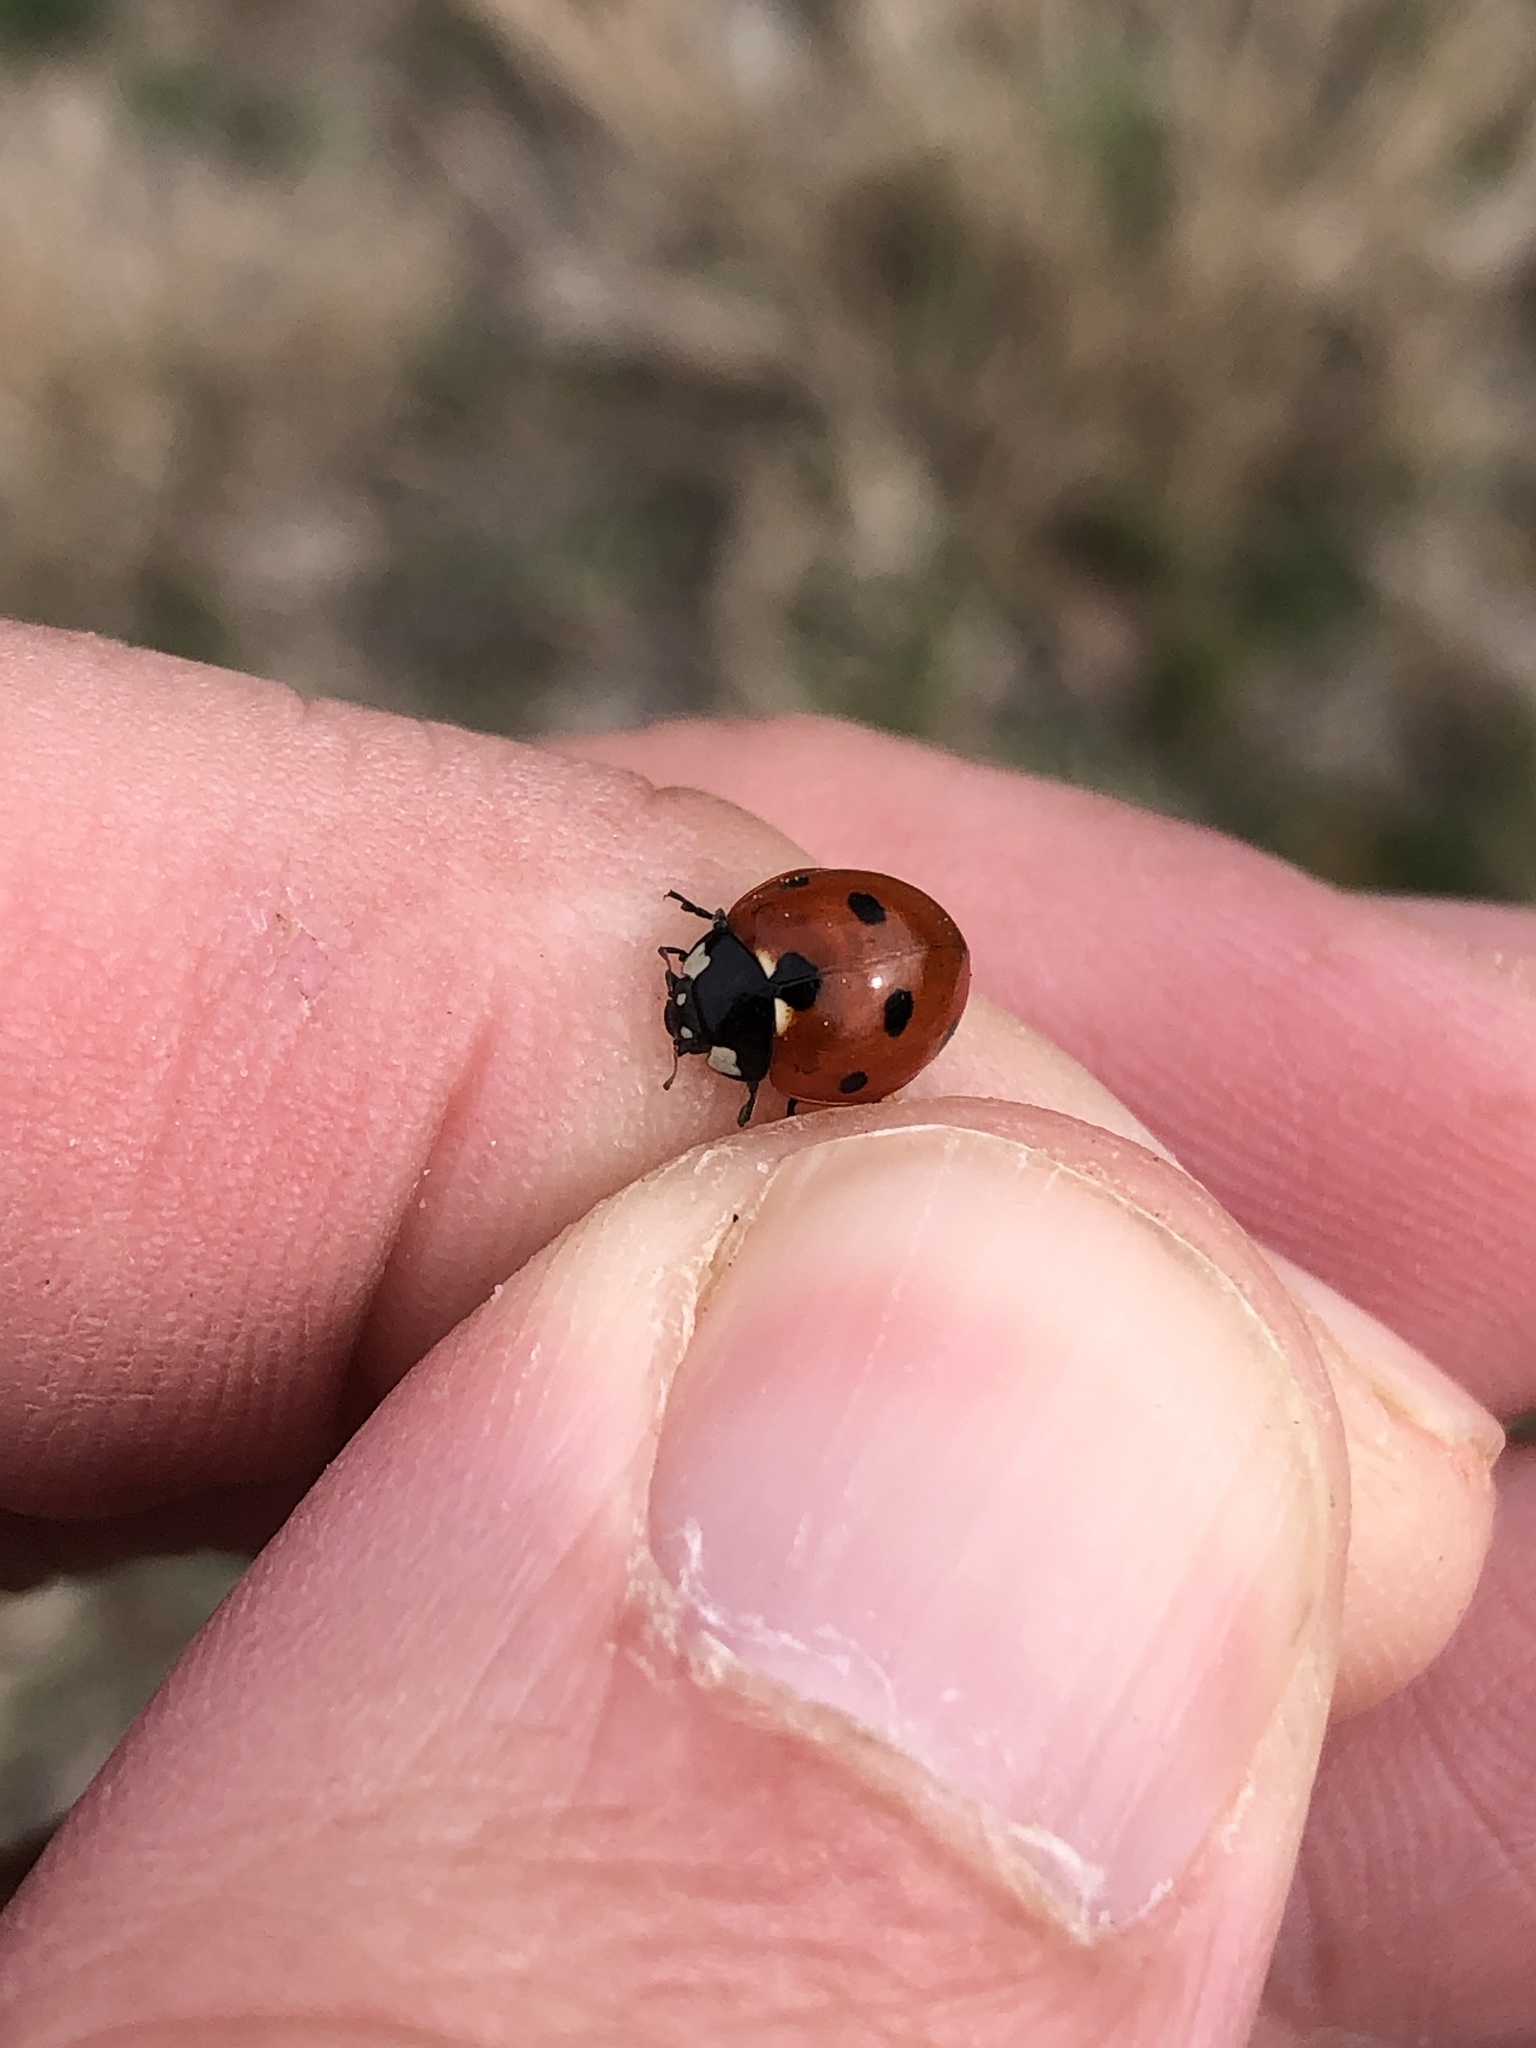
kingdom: Animalia
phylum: Arthropoda
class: Insecta
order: Coleoptera
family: Coccinellidae
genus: Coccinella
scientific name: Coccinella septempunctata
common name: Sevenspotted lady beetle
